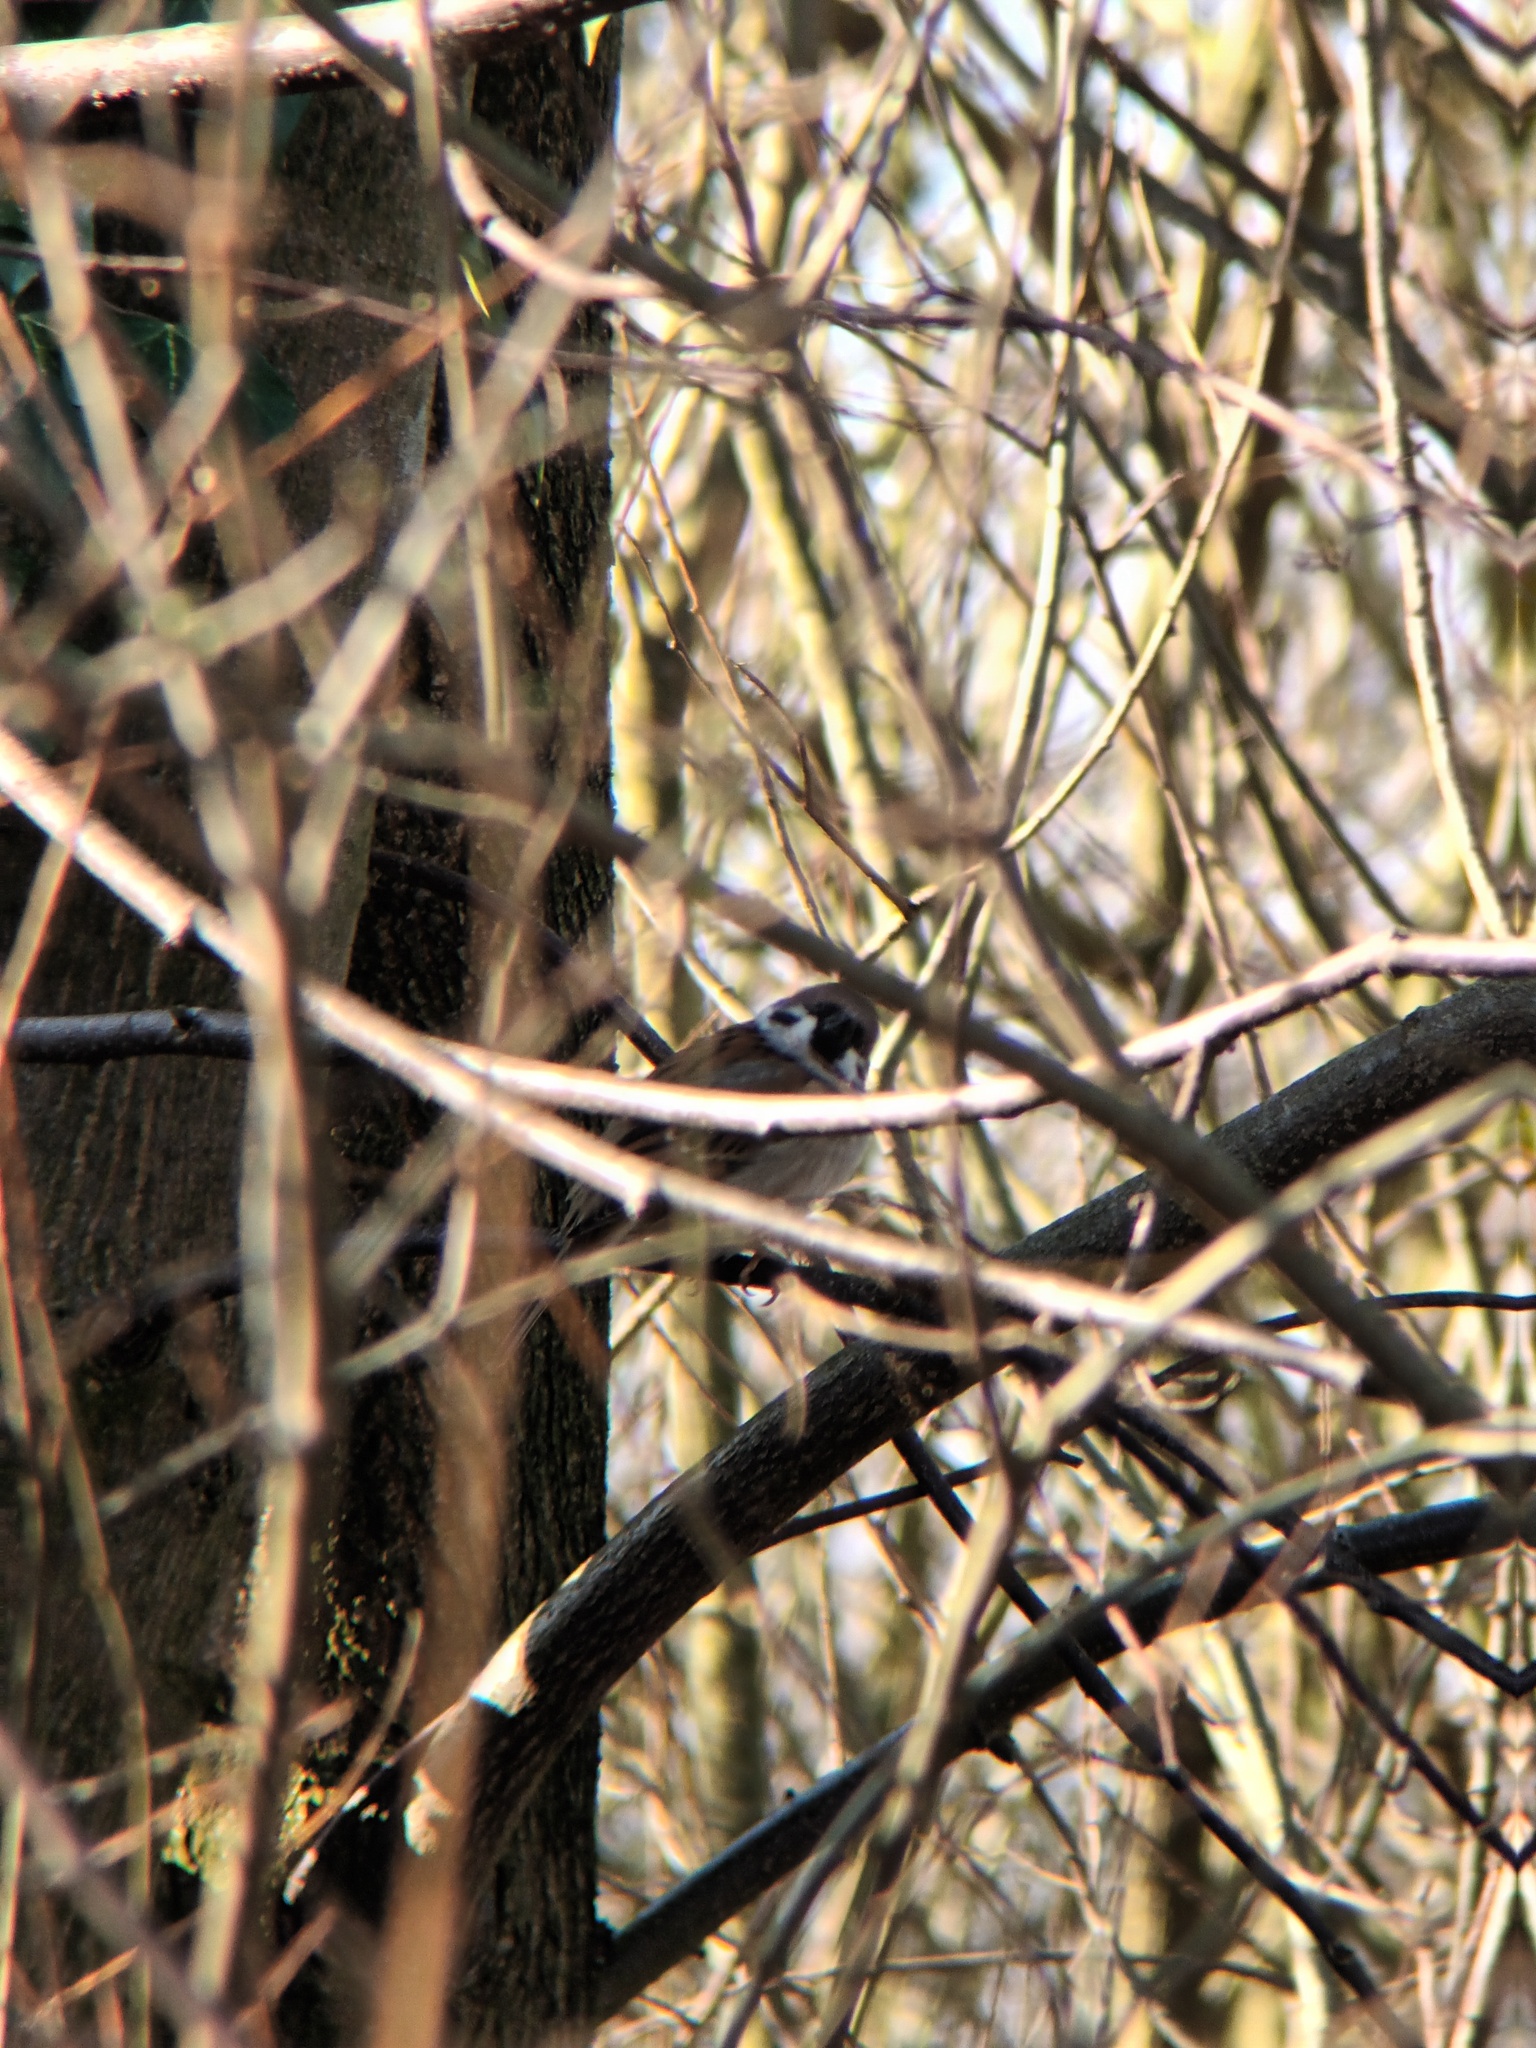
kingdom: Animalia
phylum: Chordata
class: Aves
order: Passeriformes
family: Passeridae
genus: Passer
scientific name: Passer montanus
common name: Eurasian tree sparrow
